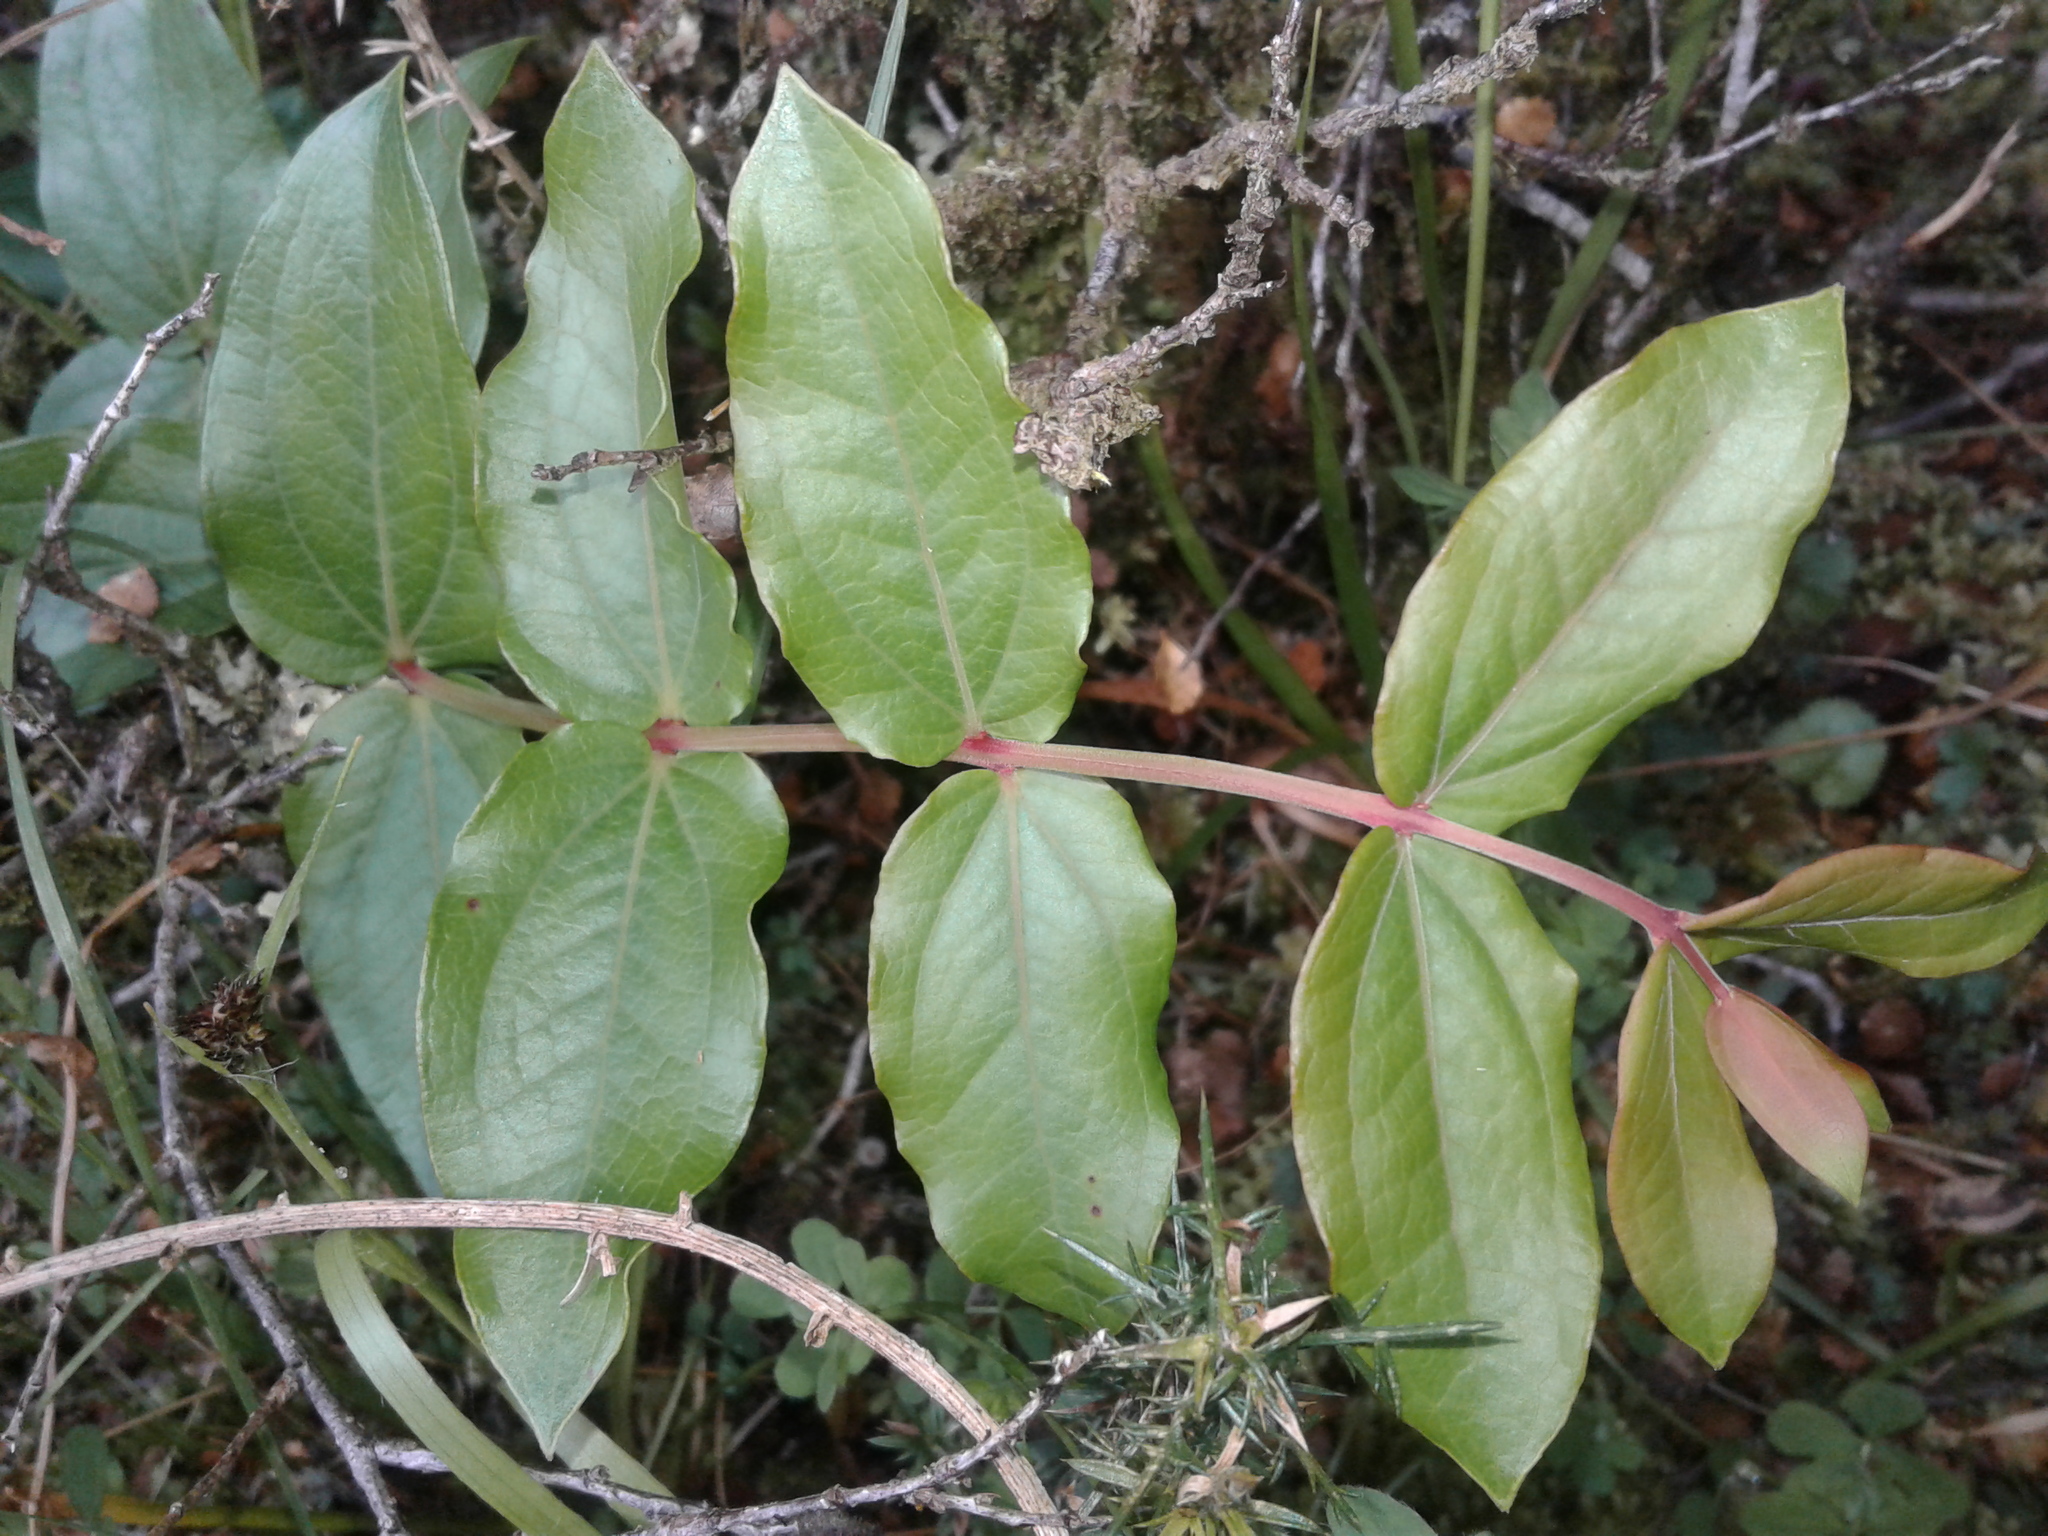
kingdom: Plantae
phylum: Tracheophyta
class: Magnoliopsida
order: Cucurbitales
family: Coriariaceae
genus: Coriaria
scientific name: Coriaria arborea
